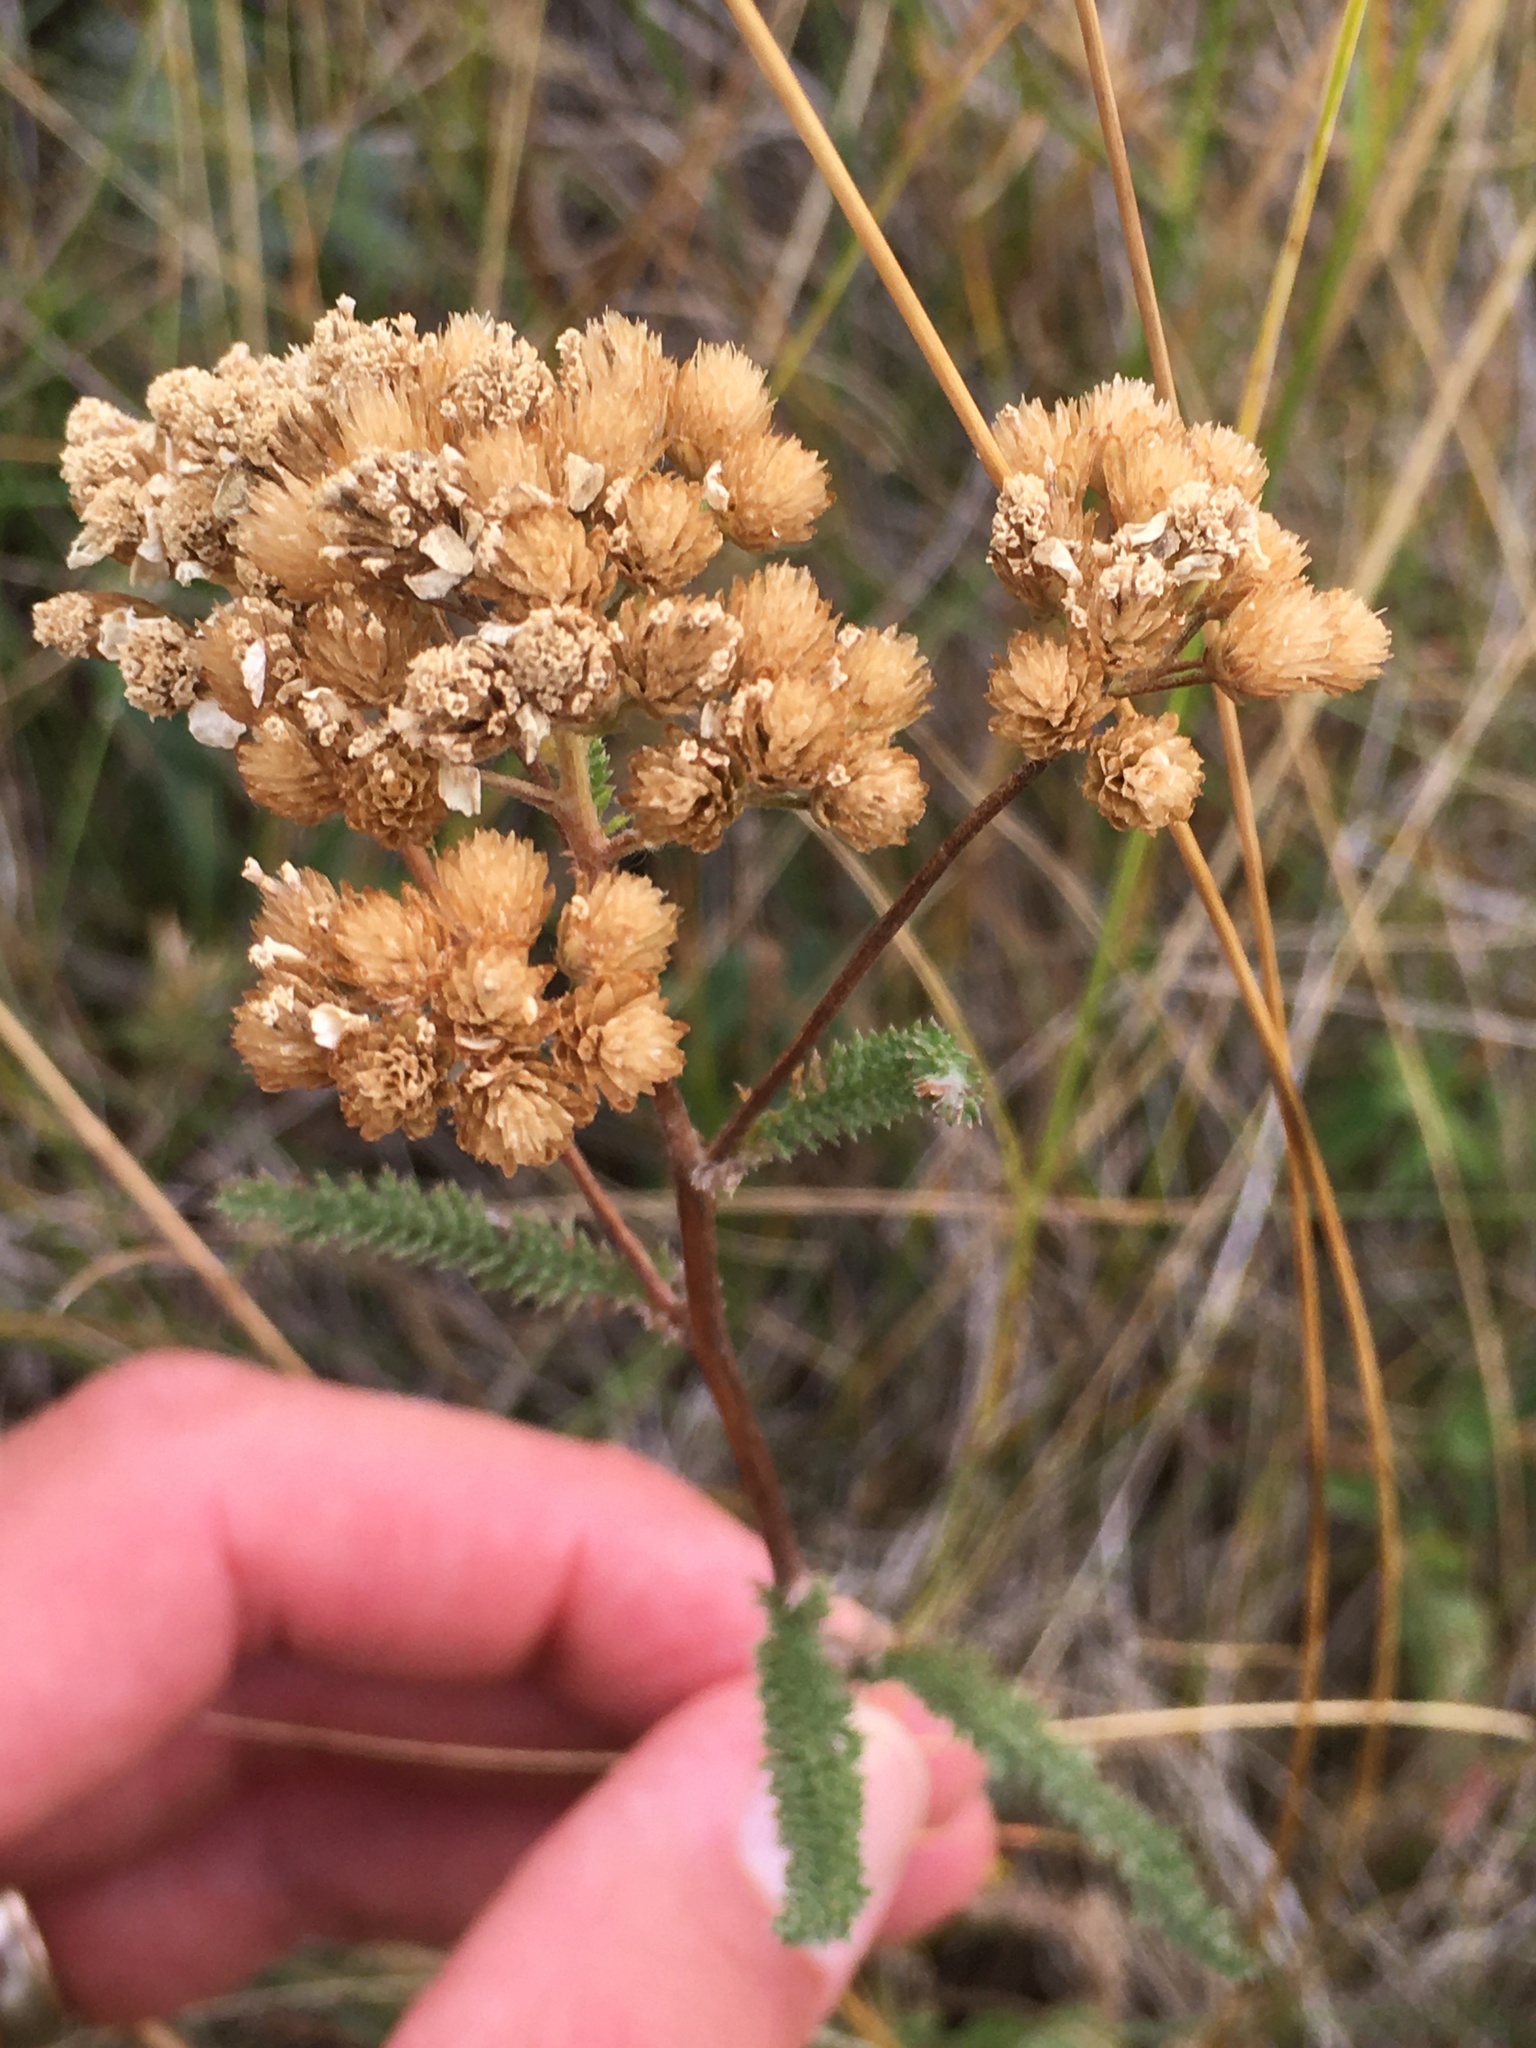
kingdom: Plantae
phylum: Tracheophyta
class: Magnoliopsida
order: Asterales
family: Asteraceae
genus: Achillea
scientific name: Achillea millefolium
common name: Yarrow
